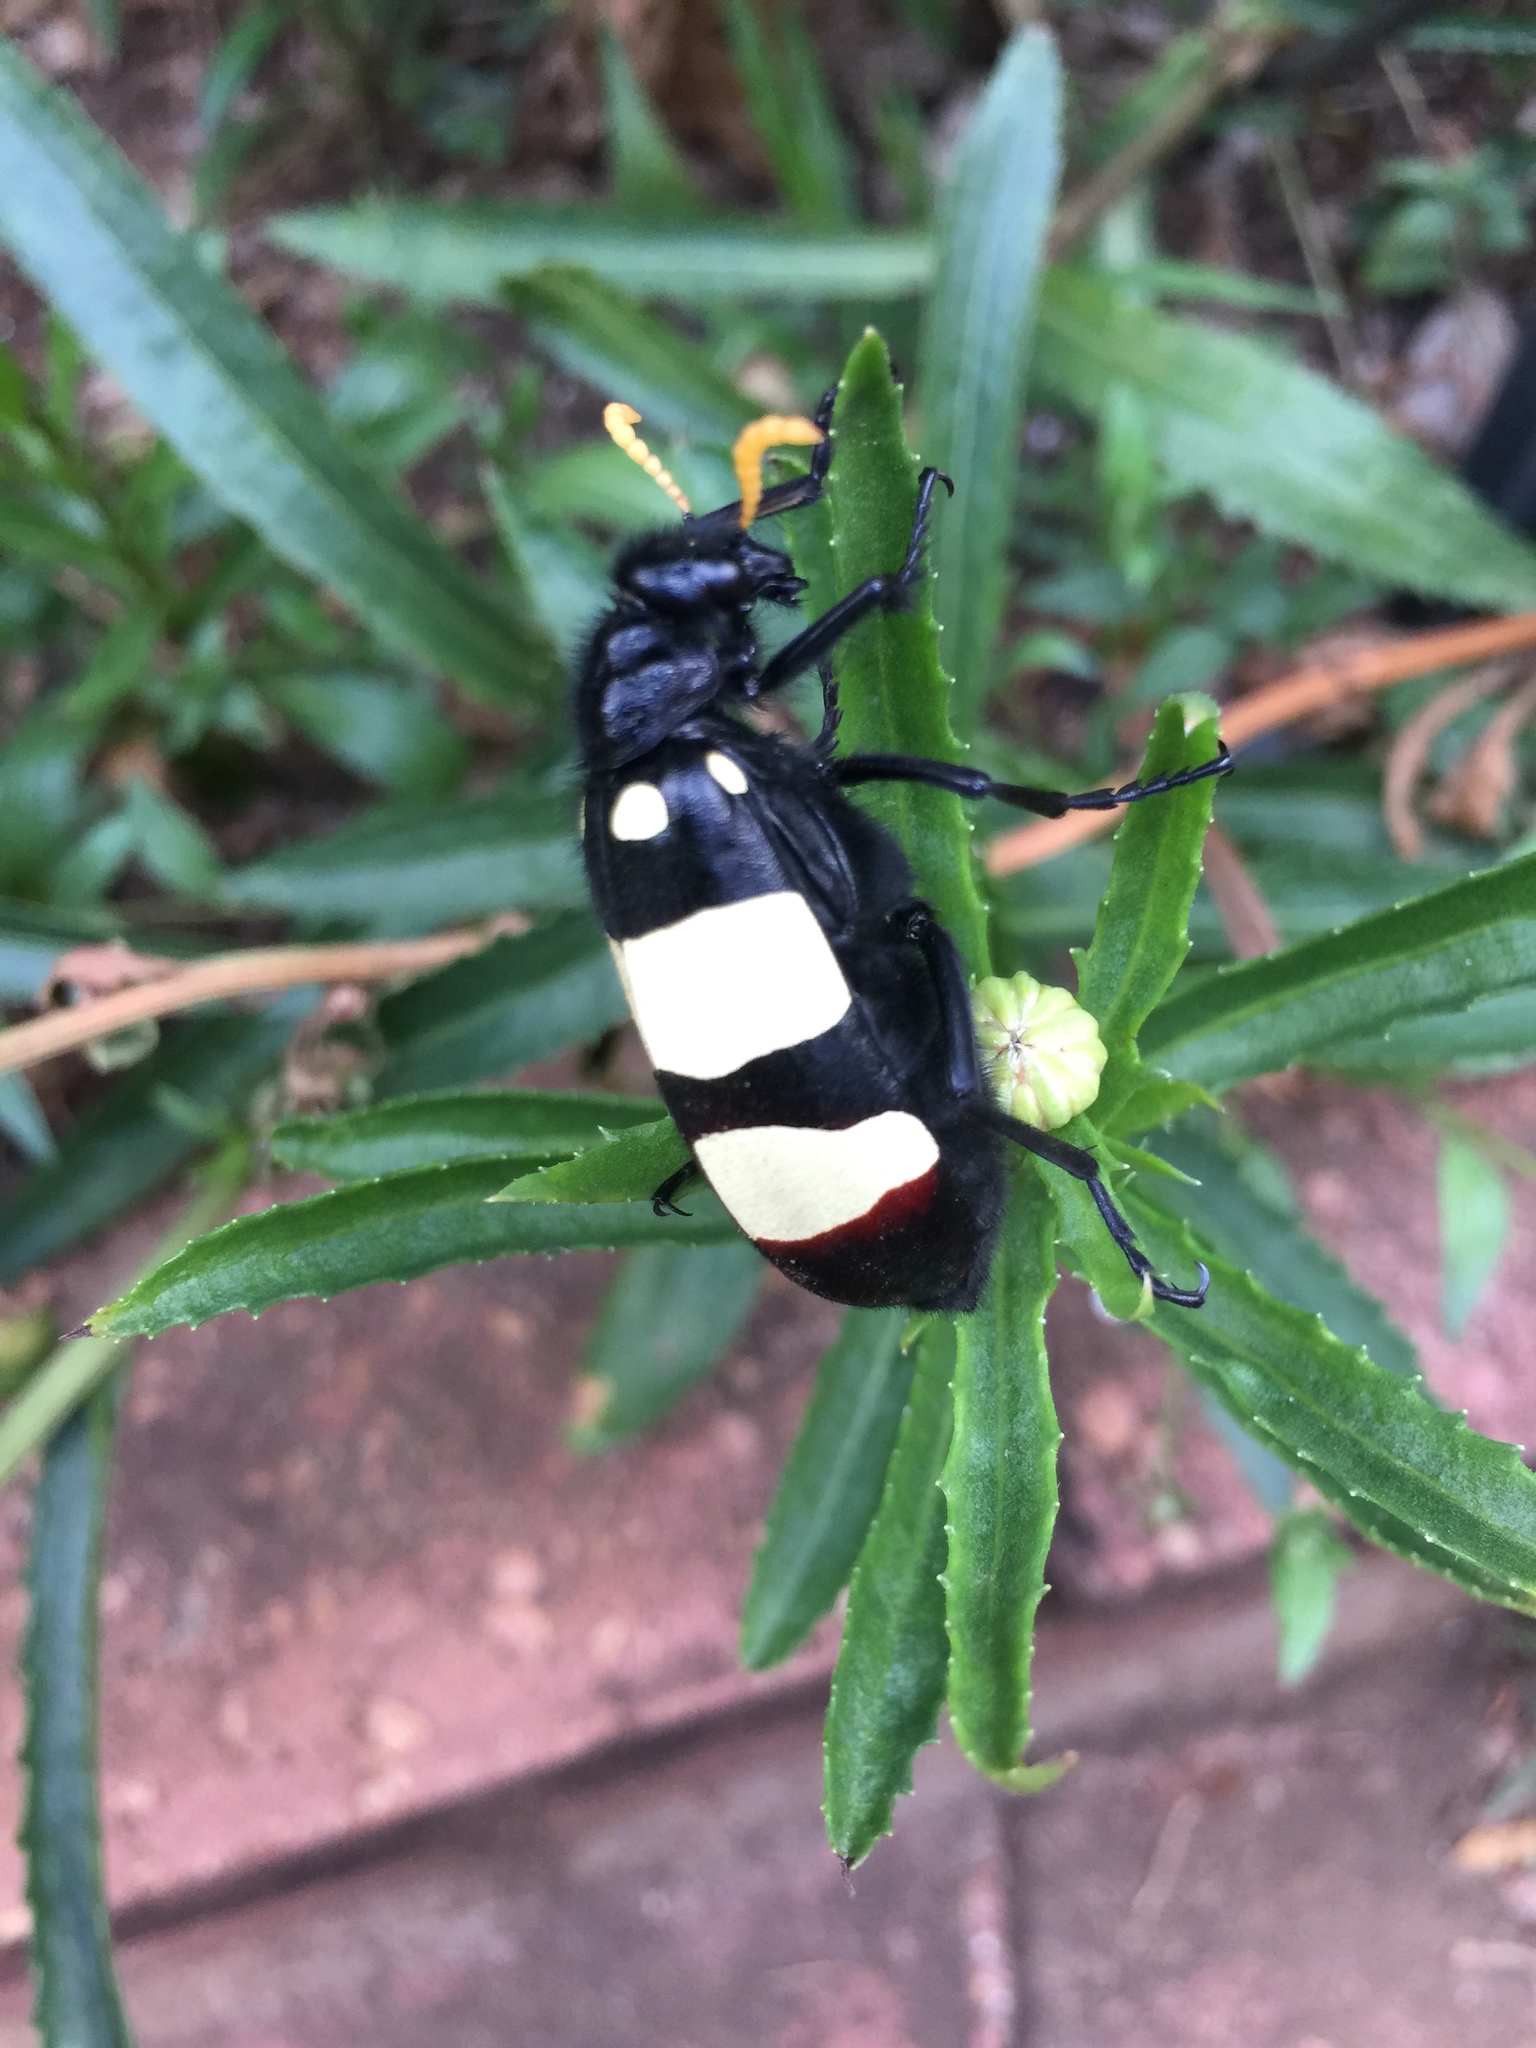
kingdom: Animalia
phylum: Arthropoda
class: Insecta
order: Coleoptera
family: Meloidae
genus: Hycleus
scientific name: Hycleus
